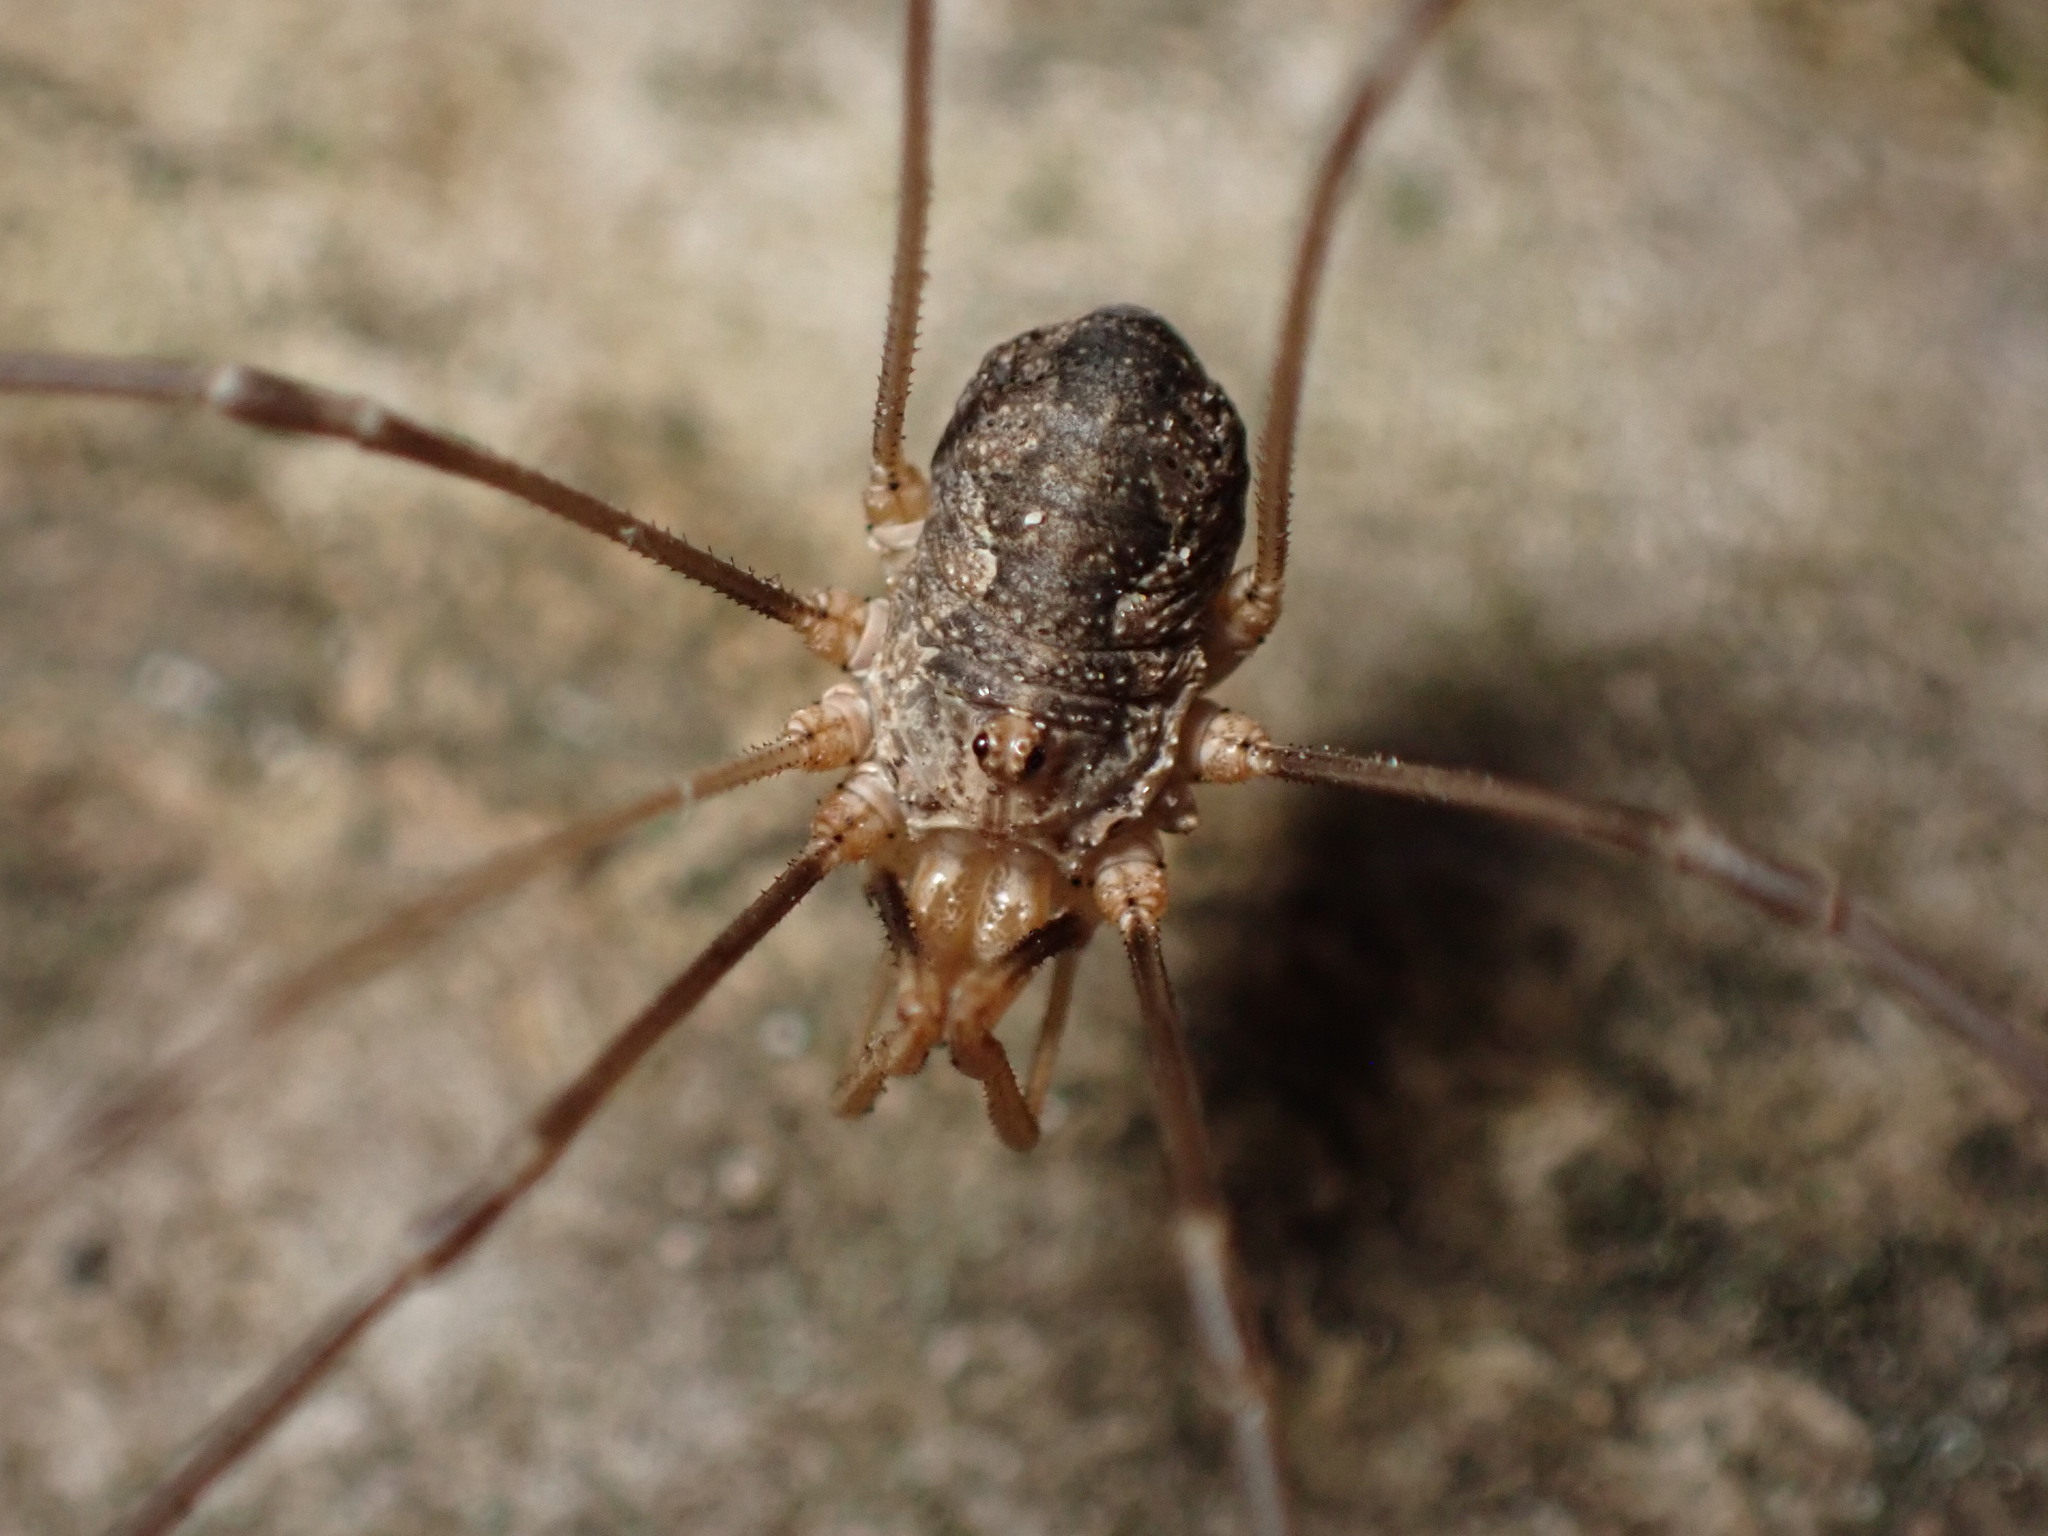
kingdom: Animalia
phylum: Arthropoda
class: Arachnida
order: Opiliones
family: Phalangiidae
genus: Phalangium
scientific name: Phalangium opilio
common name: Daddy longleg
